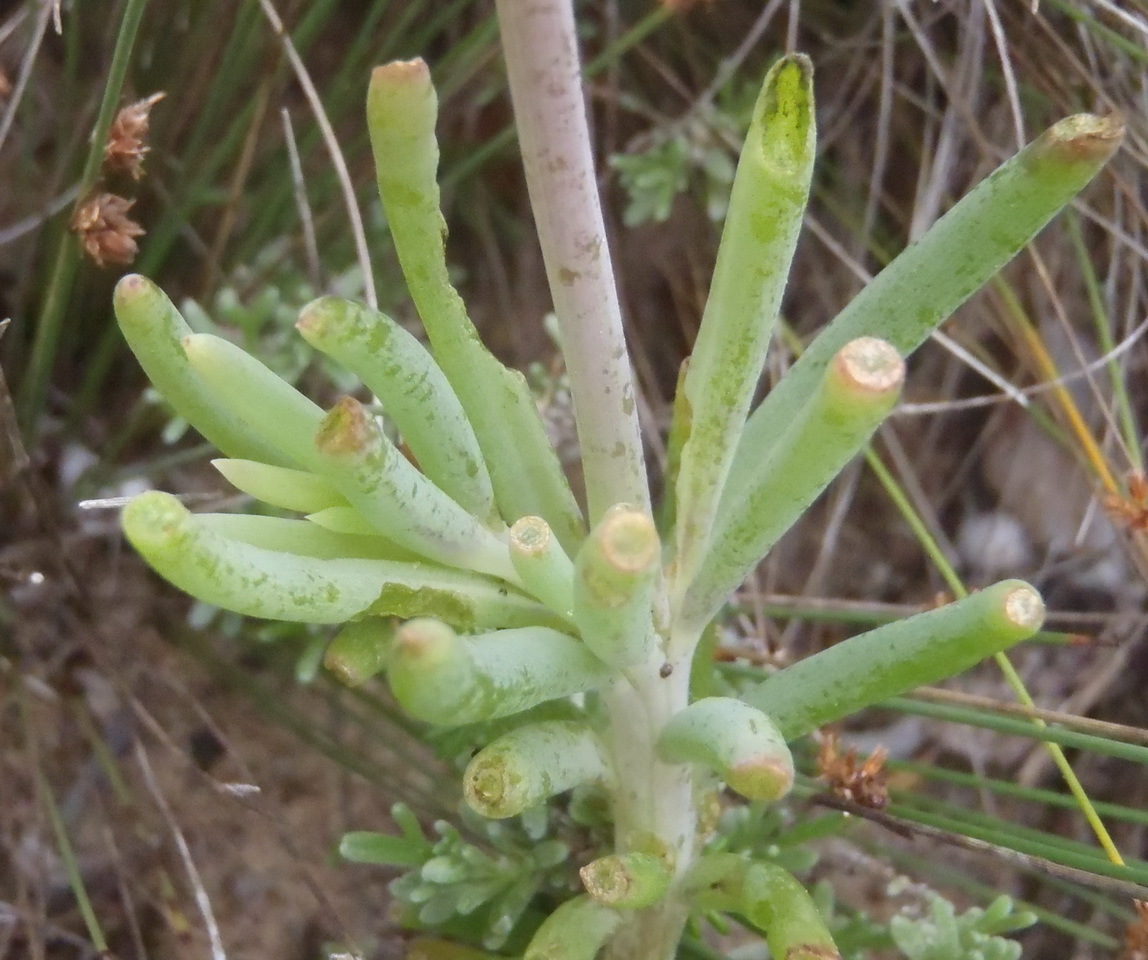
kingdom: Plantae
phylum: Tracheophyta
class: Magnoliopsida
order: Asterales
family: Asteraceae
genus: Crassothonna
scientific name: Crassothonna cacalioides
